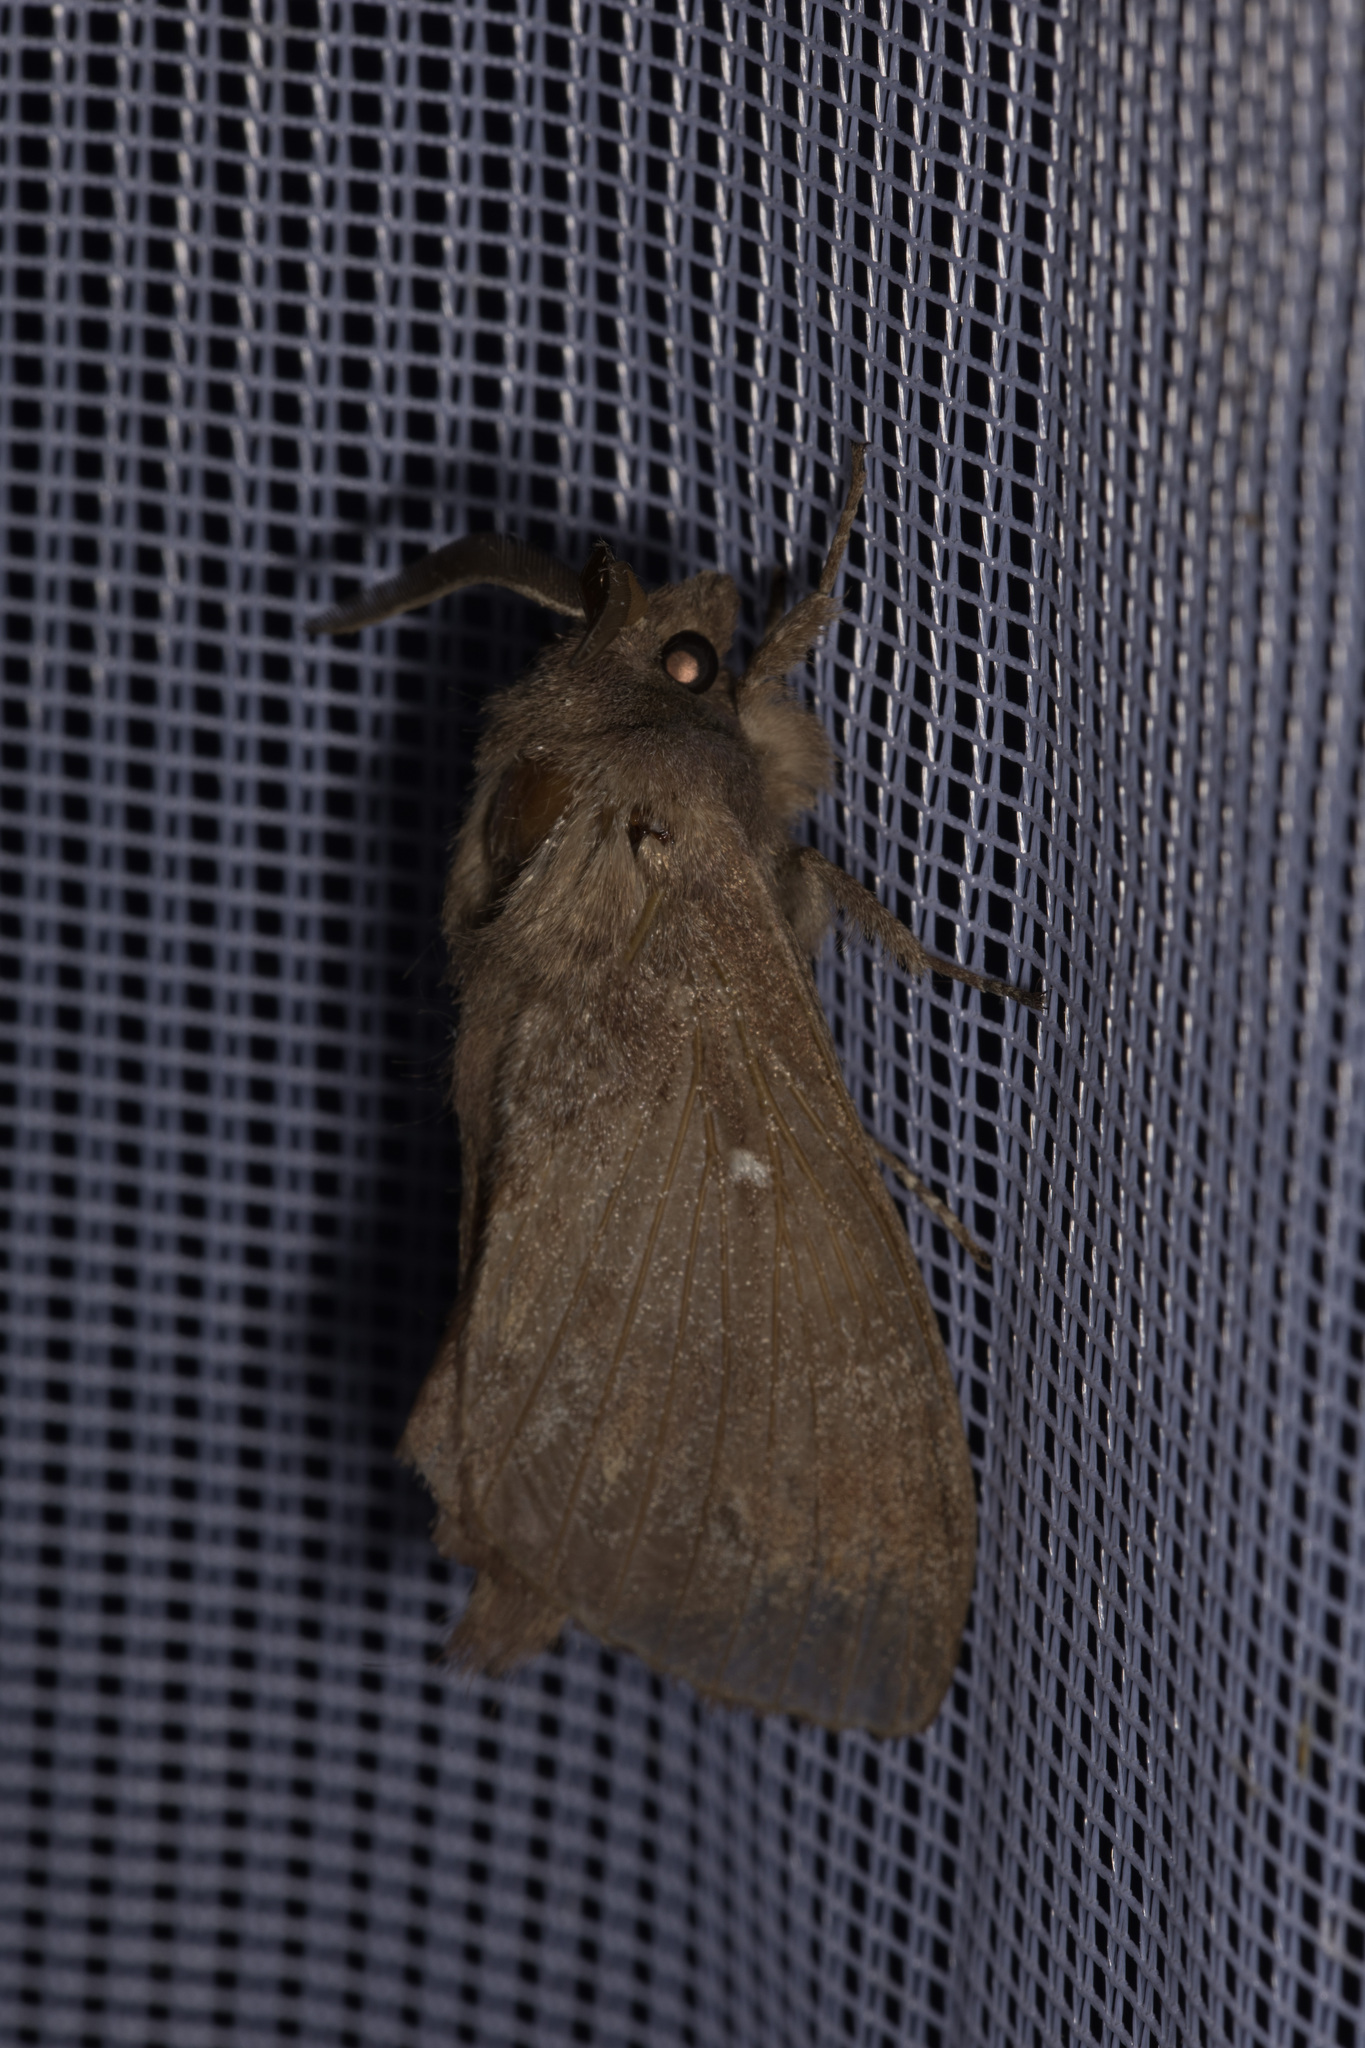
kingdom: Animalia
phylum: Arthropoda
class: Insecta
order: Lepidoptera
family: Lasiocampidae
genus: Dendrolimus
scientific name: Dendrolimus pini
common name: Pine-tree lappet
